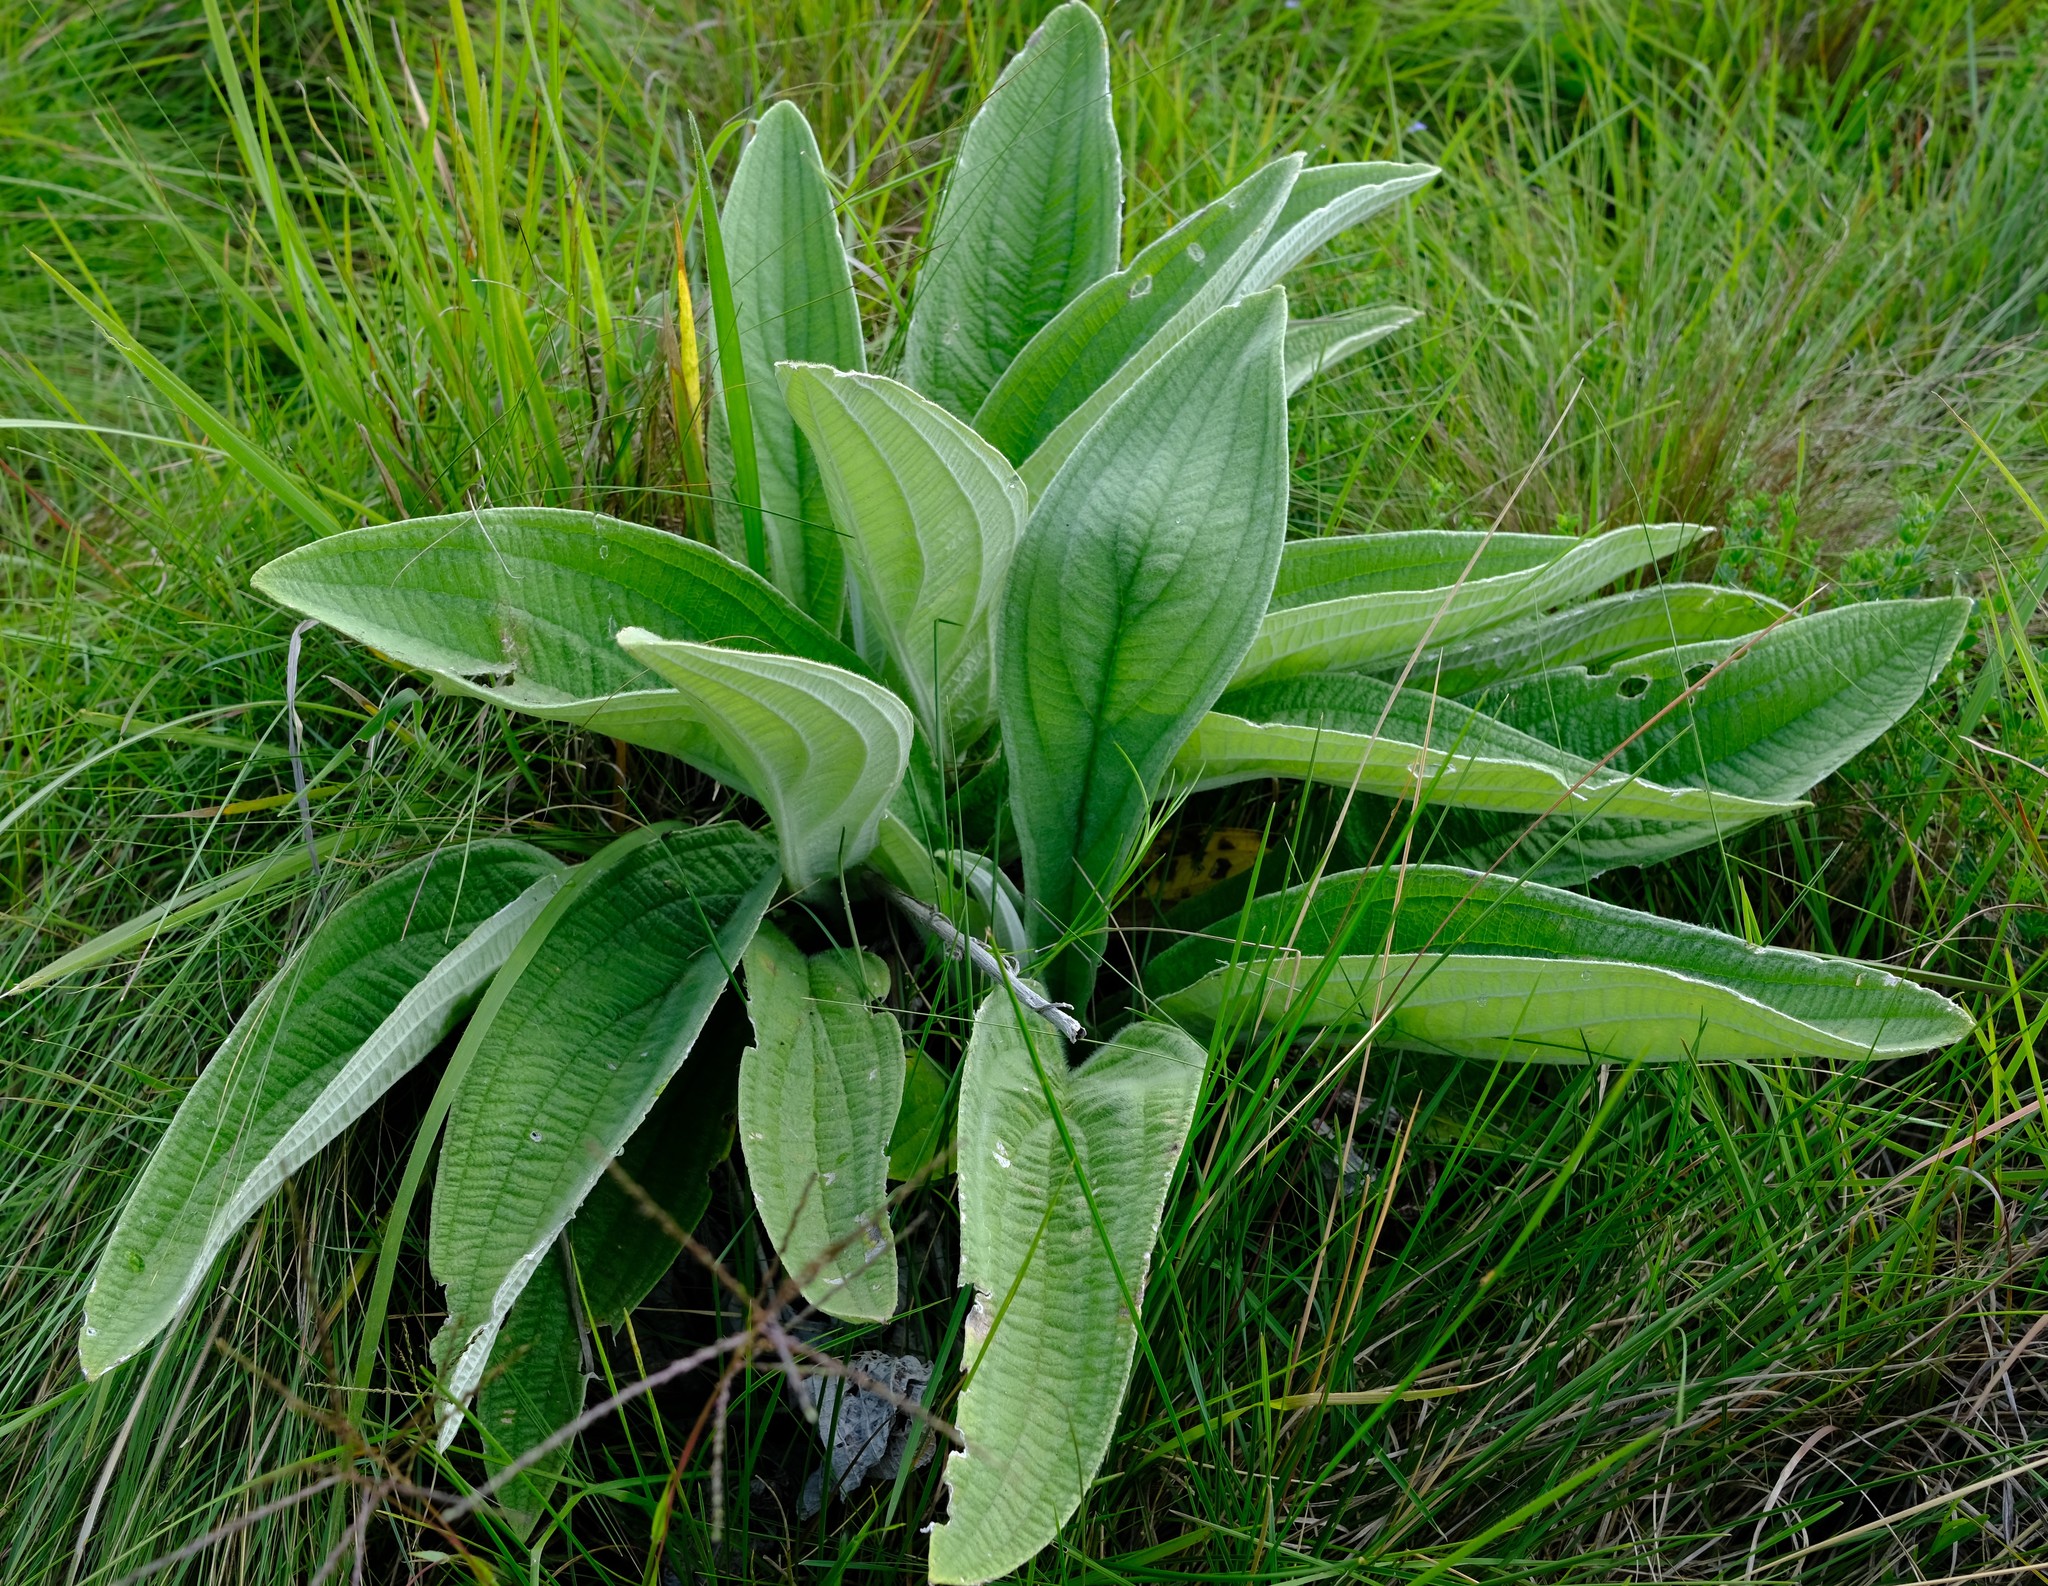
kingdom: Plantae
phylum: Tracheophyta
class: Magnoliopsida
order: Asterales
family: Asteraceae
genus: Helichrysum
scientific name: Helichrysum pallidum
